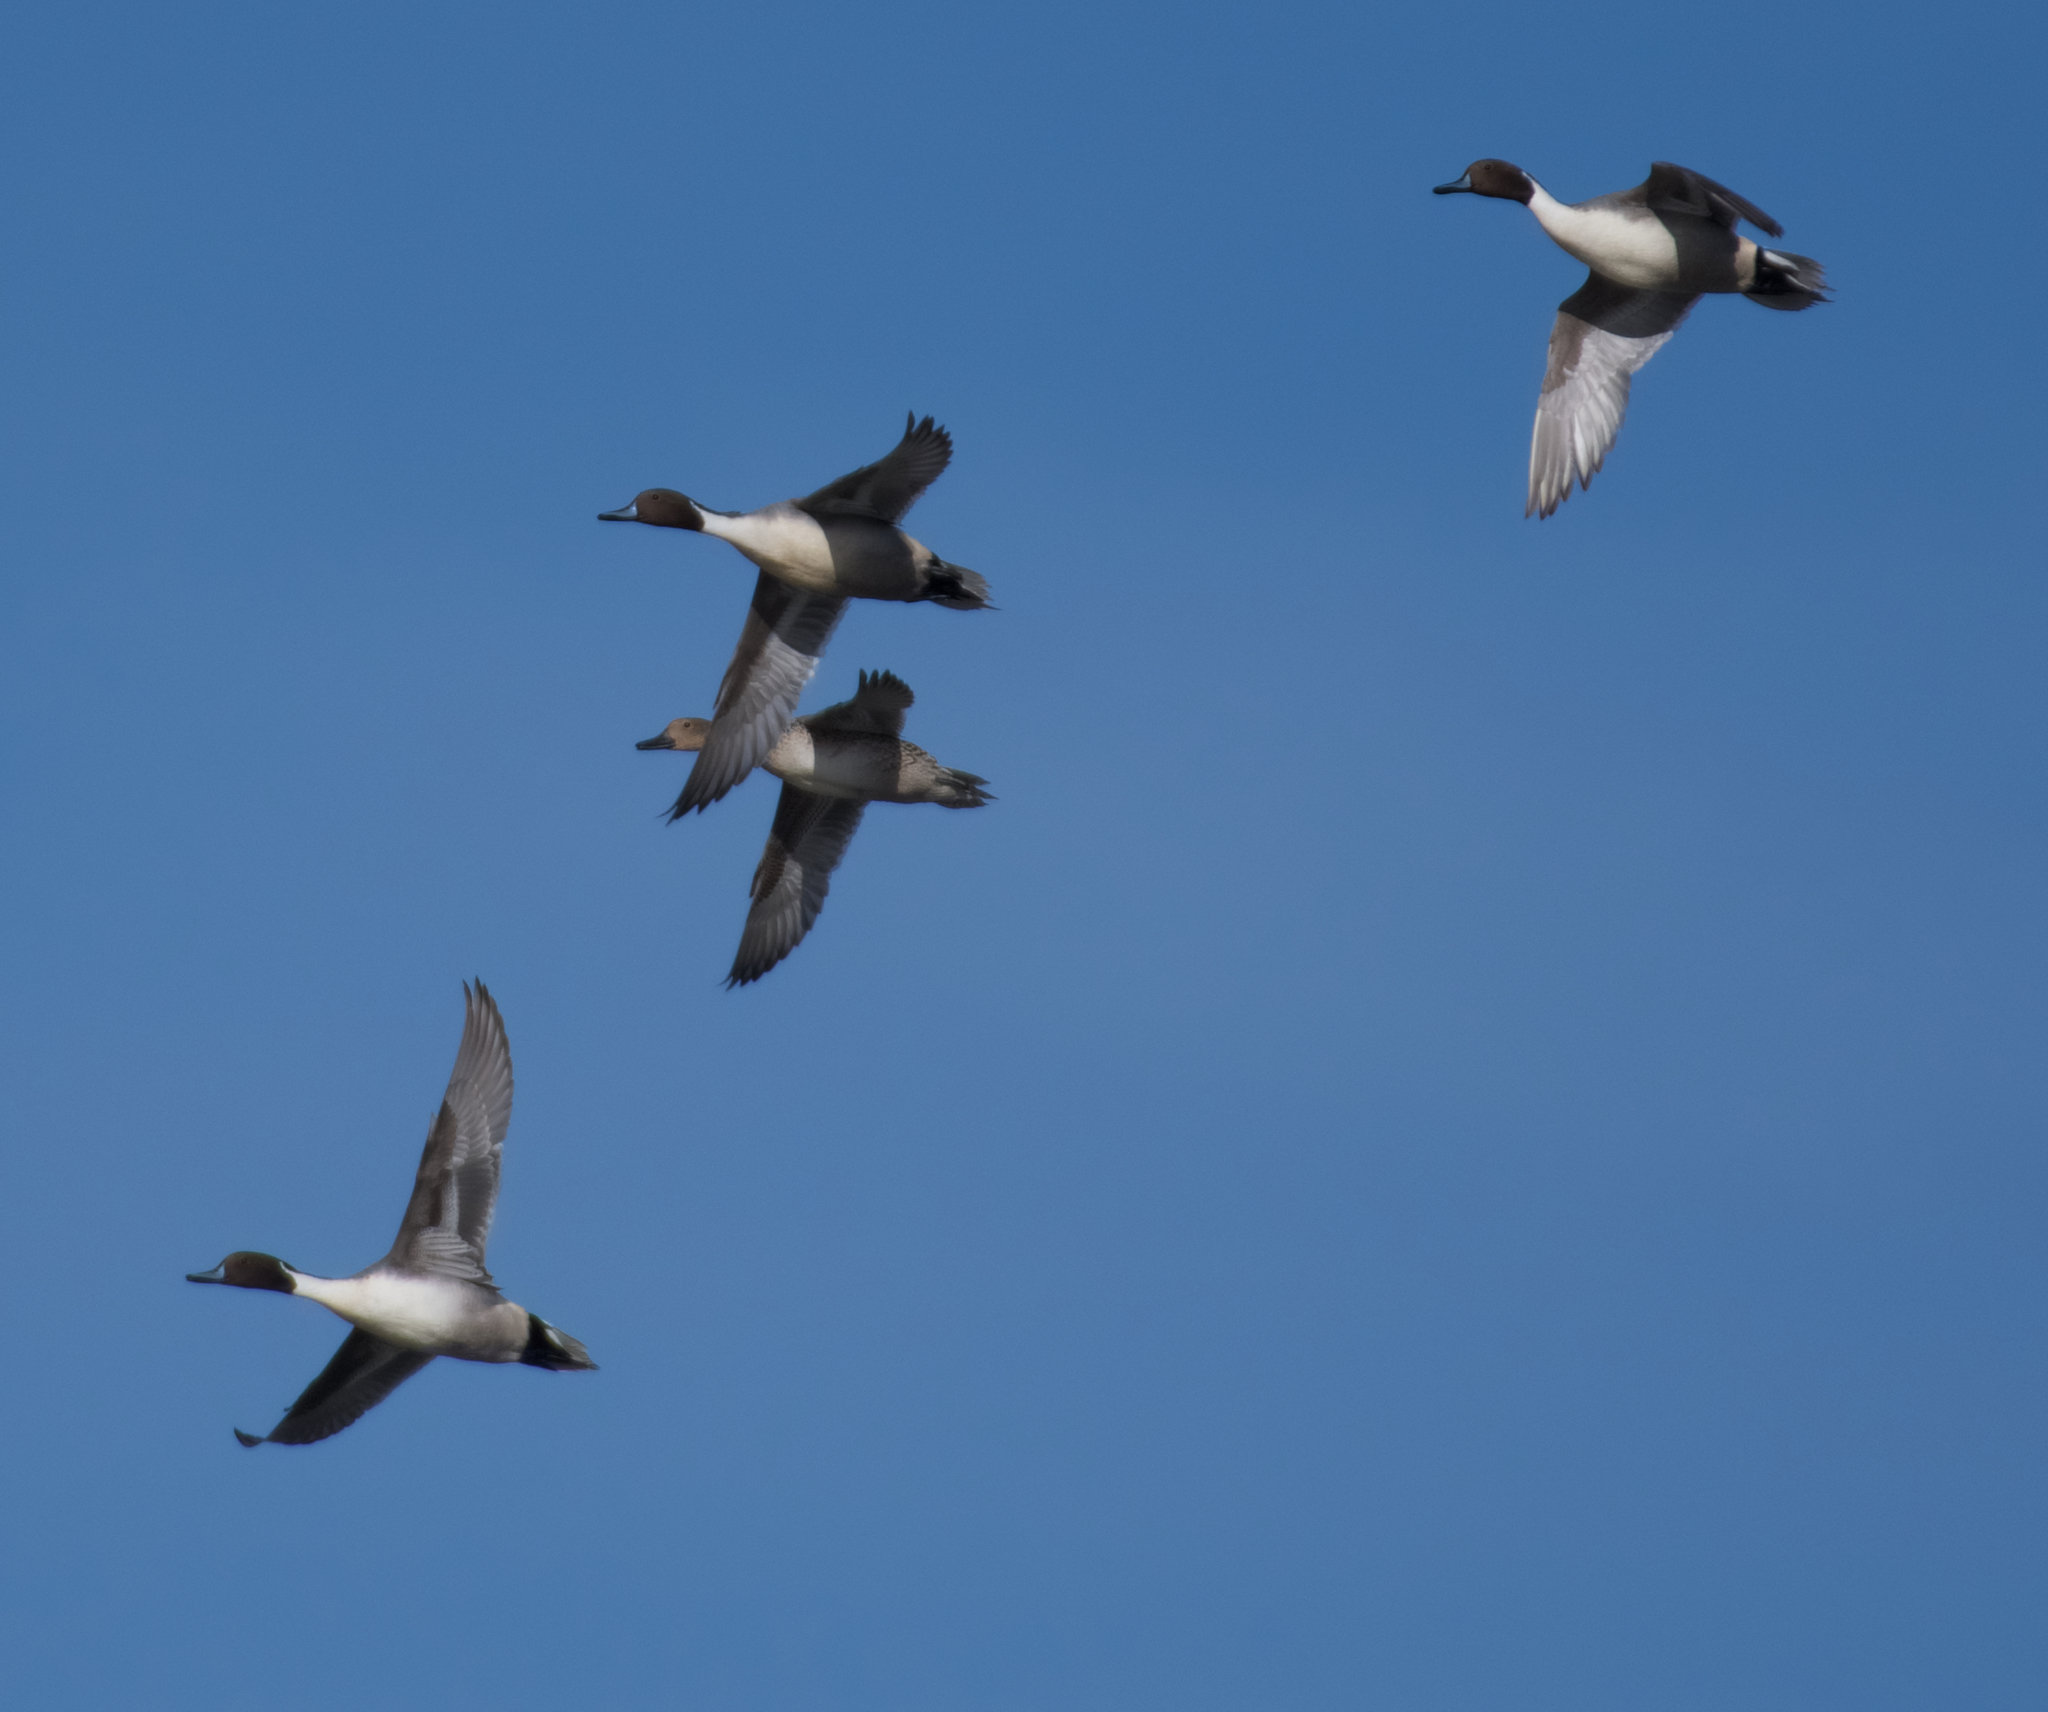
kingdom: Animalia
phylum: Chordata
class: Aves
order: Anseriformes
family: Anatidae
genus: Anas
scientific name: Anas acuta
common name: Northern pintail
